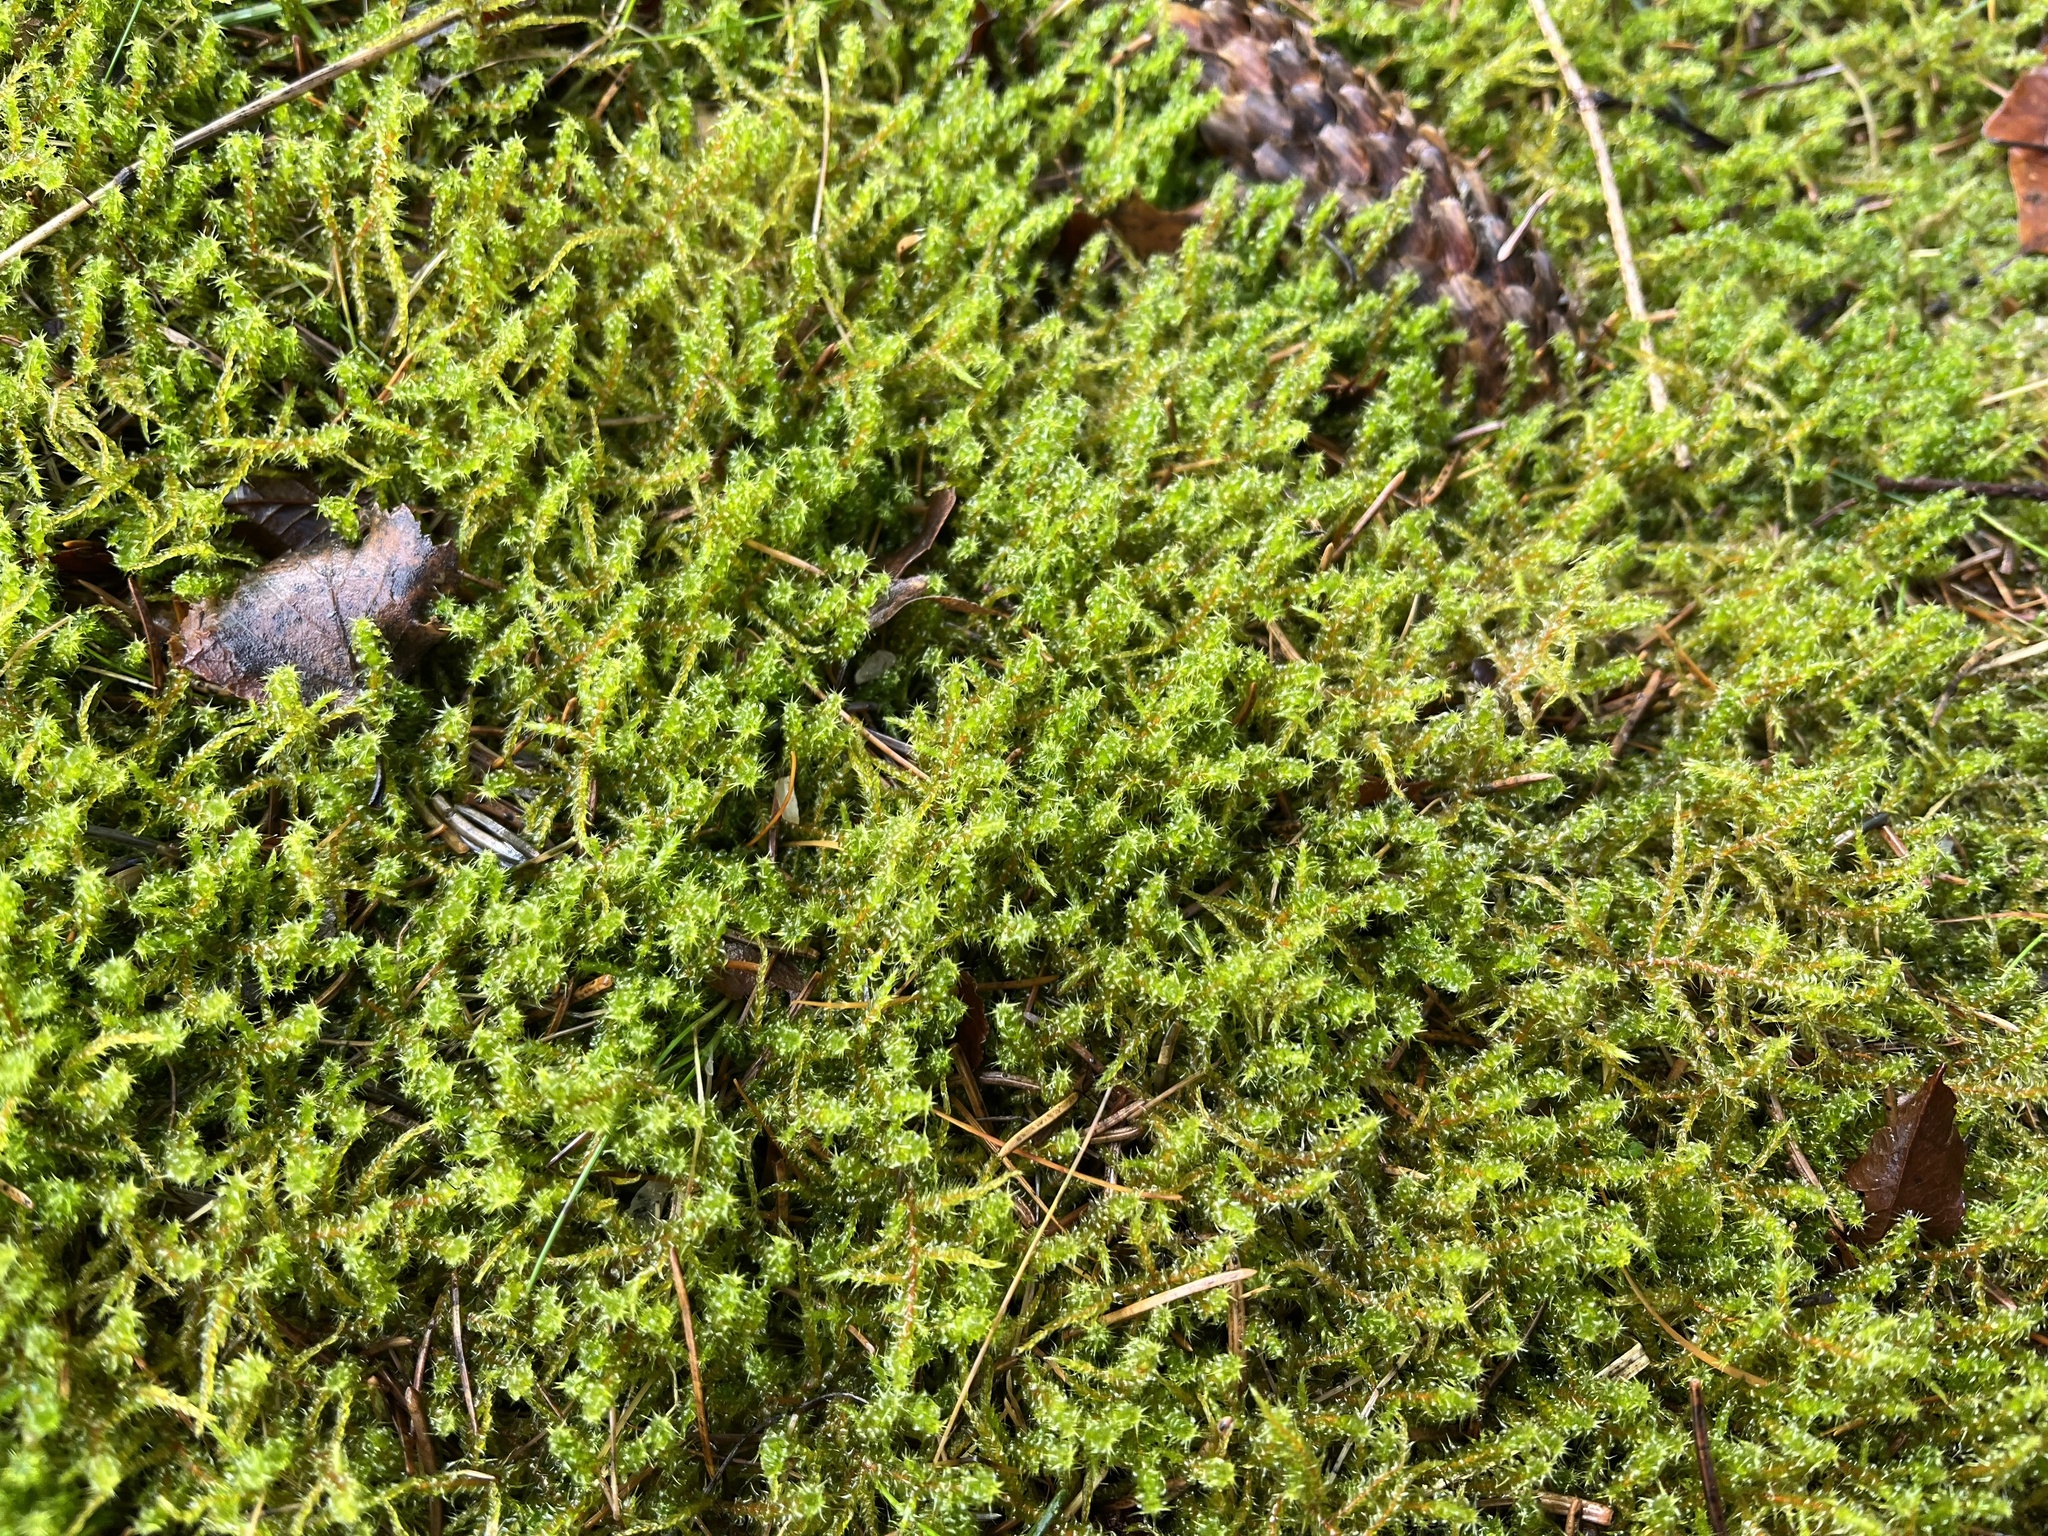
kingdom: Plantae
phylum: Bryophyta
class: Bryopsida
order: Hypnales
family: Hylocomiaceae
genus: Rhytidiadelphus
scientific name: Rhytidiadelphus squarrosus
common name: Springy turf-moss
